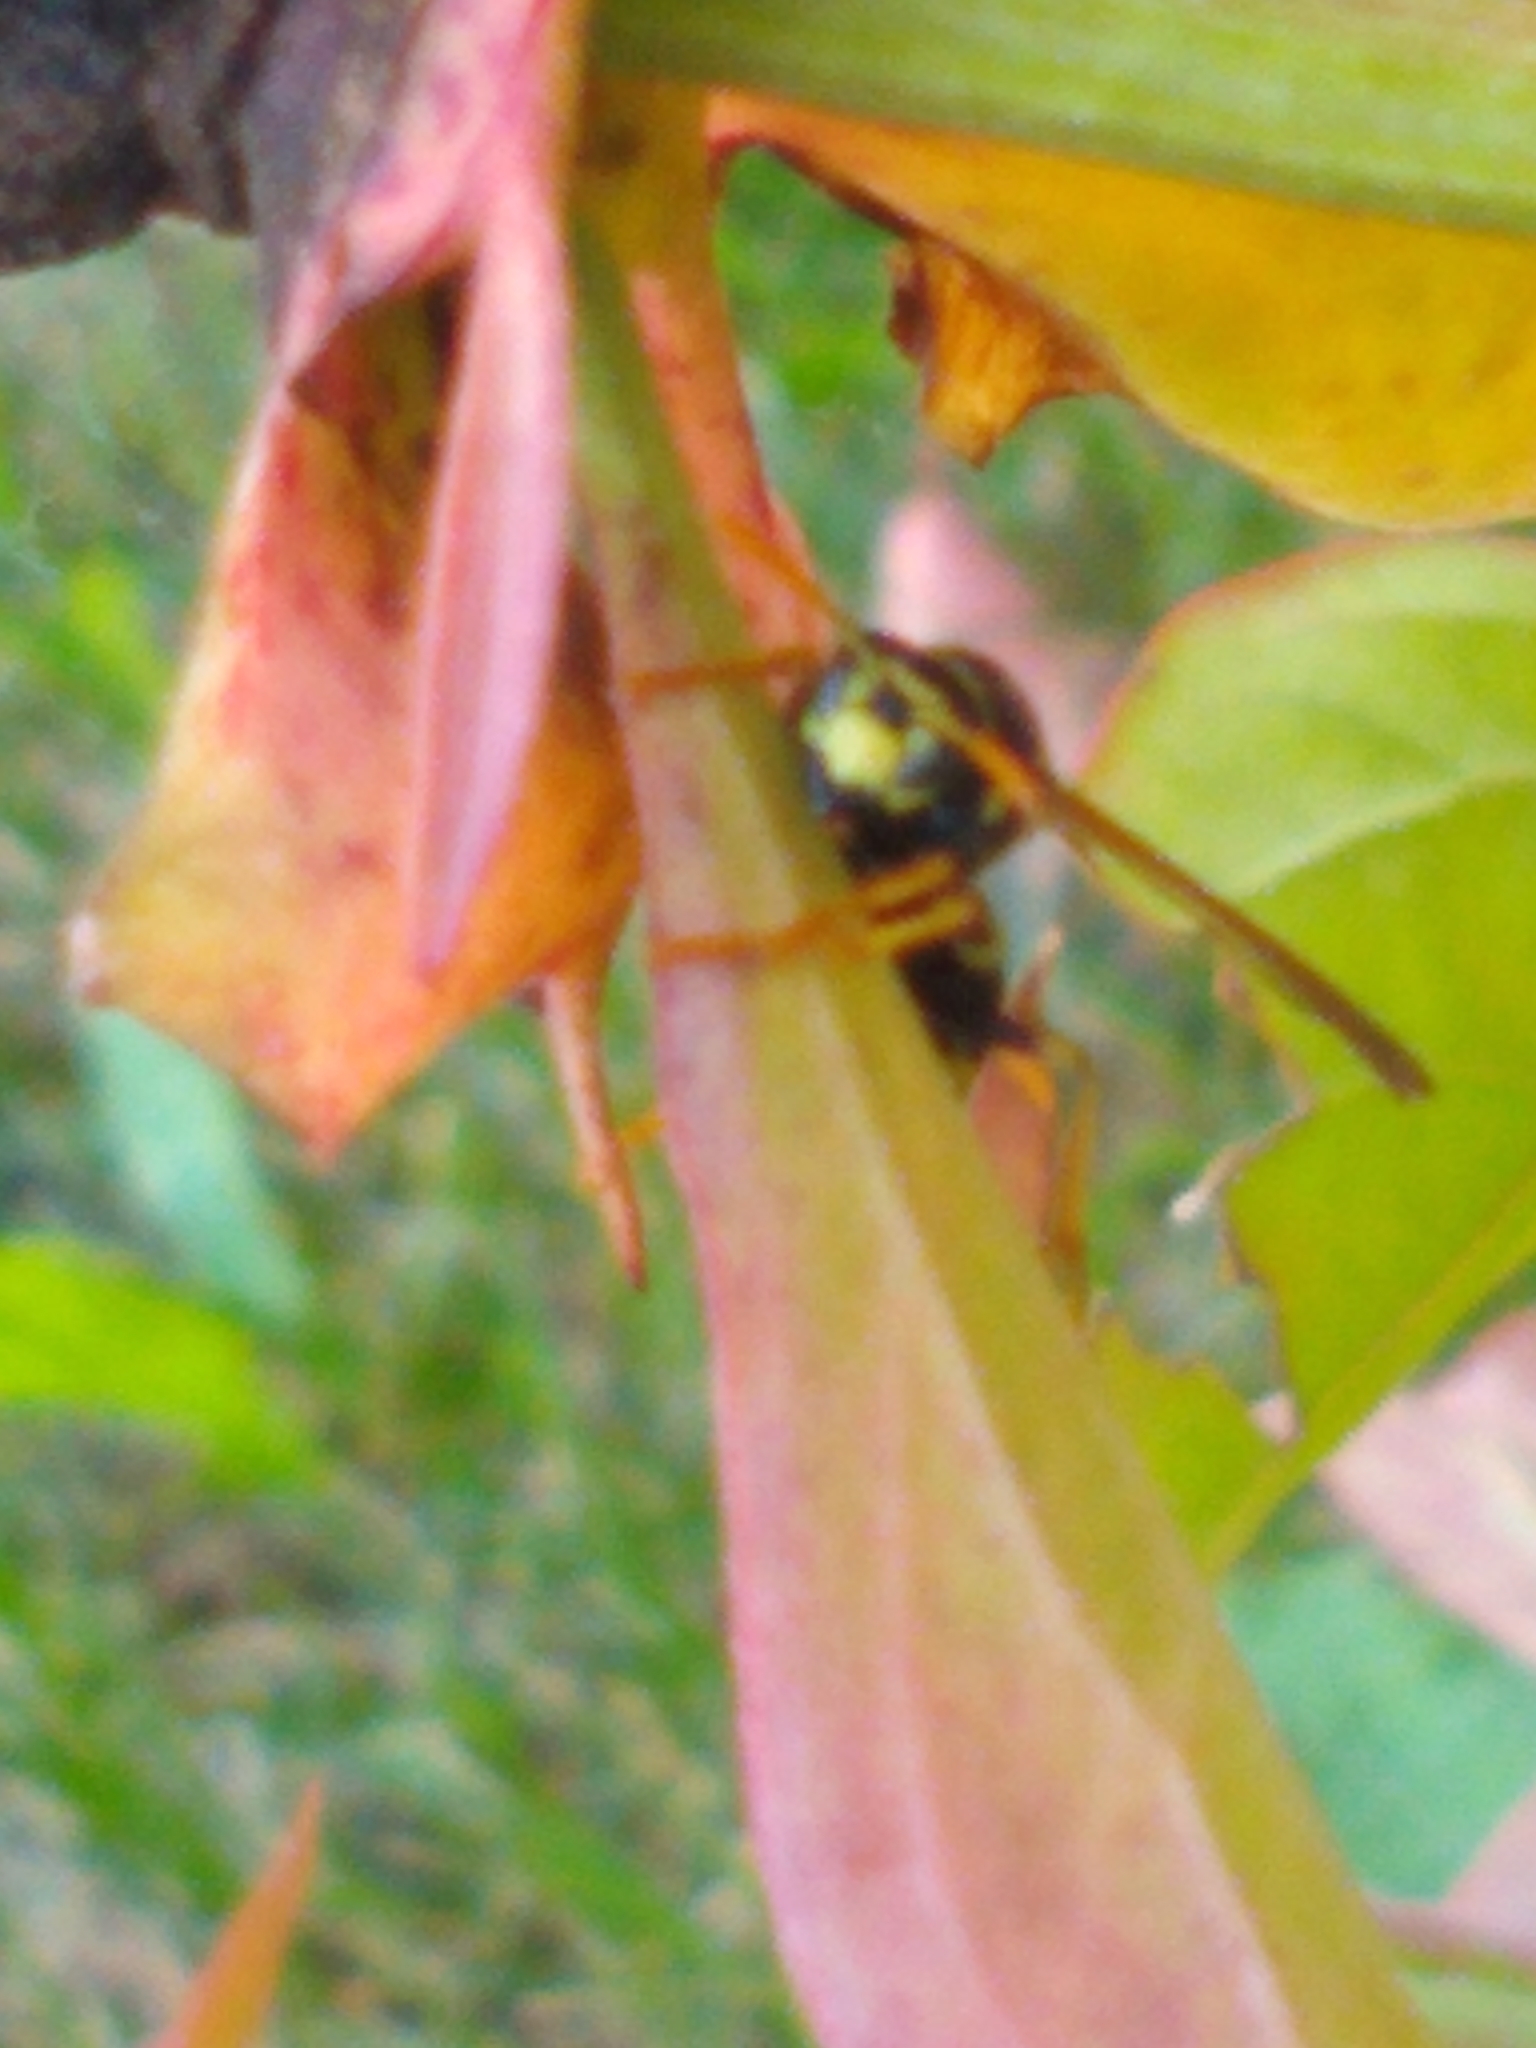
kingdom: Animalia
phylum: Arthropoda
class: Insecta
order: Hymenoptera
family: Eumenidae
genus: Polistes
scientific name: Polistes dominula
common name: Paper wasp
